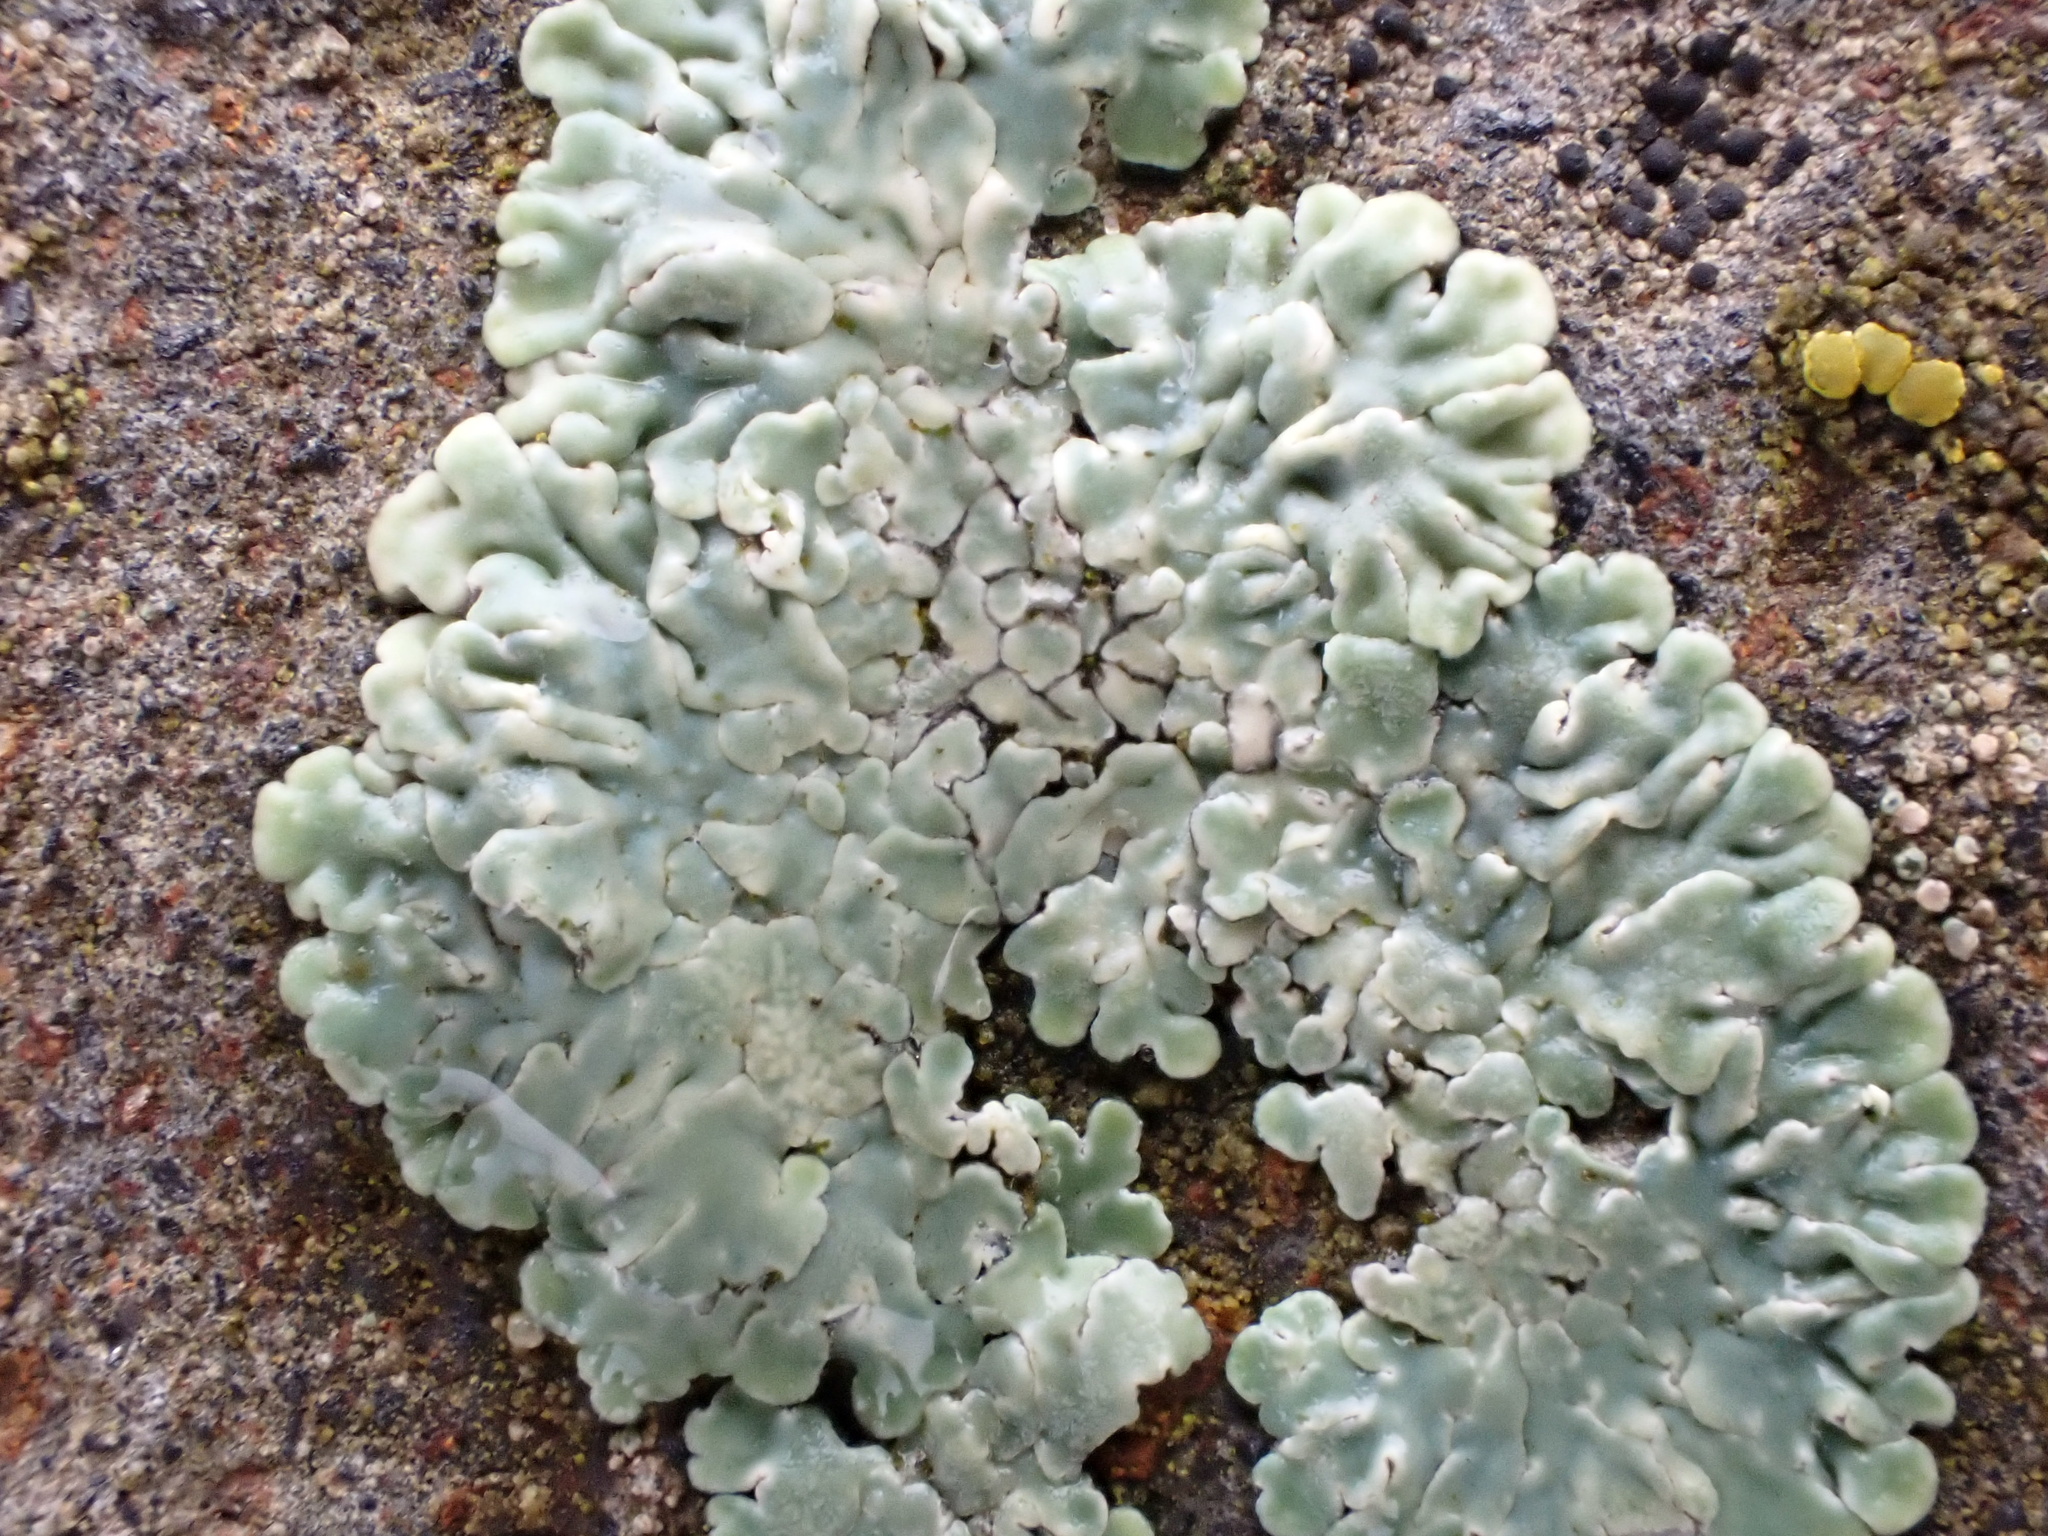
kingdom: Fungi
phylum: Ascomycota
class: Lecanoromycetes
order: Lecanorales
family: Lecanoraceae
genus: Protoparmeliopsis
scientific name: Protoparmeliopsis muralis
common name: Stonewall rim lichen
